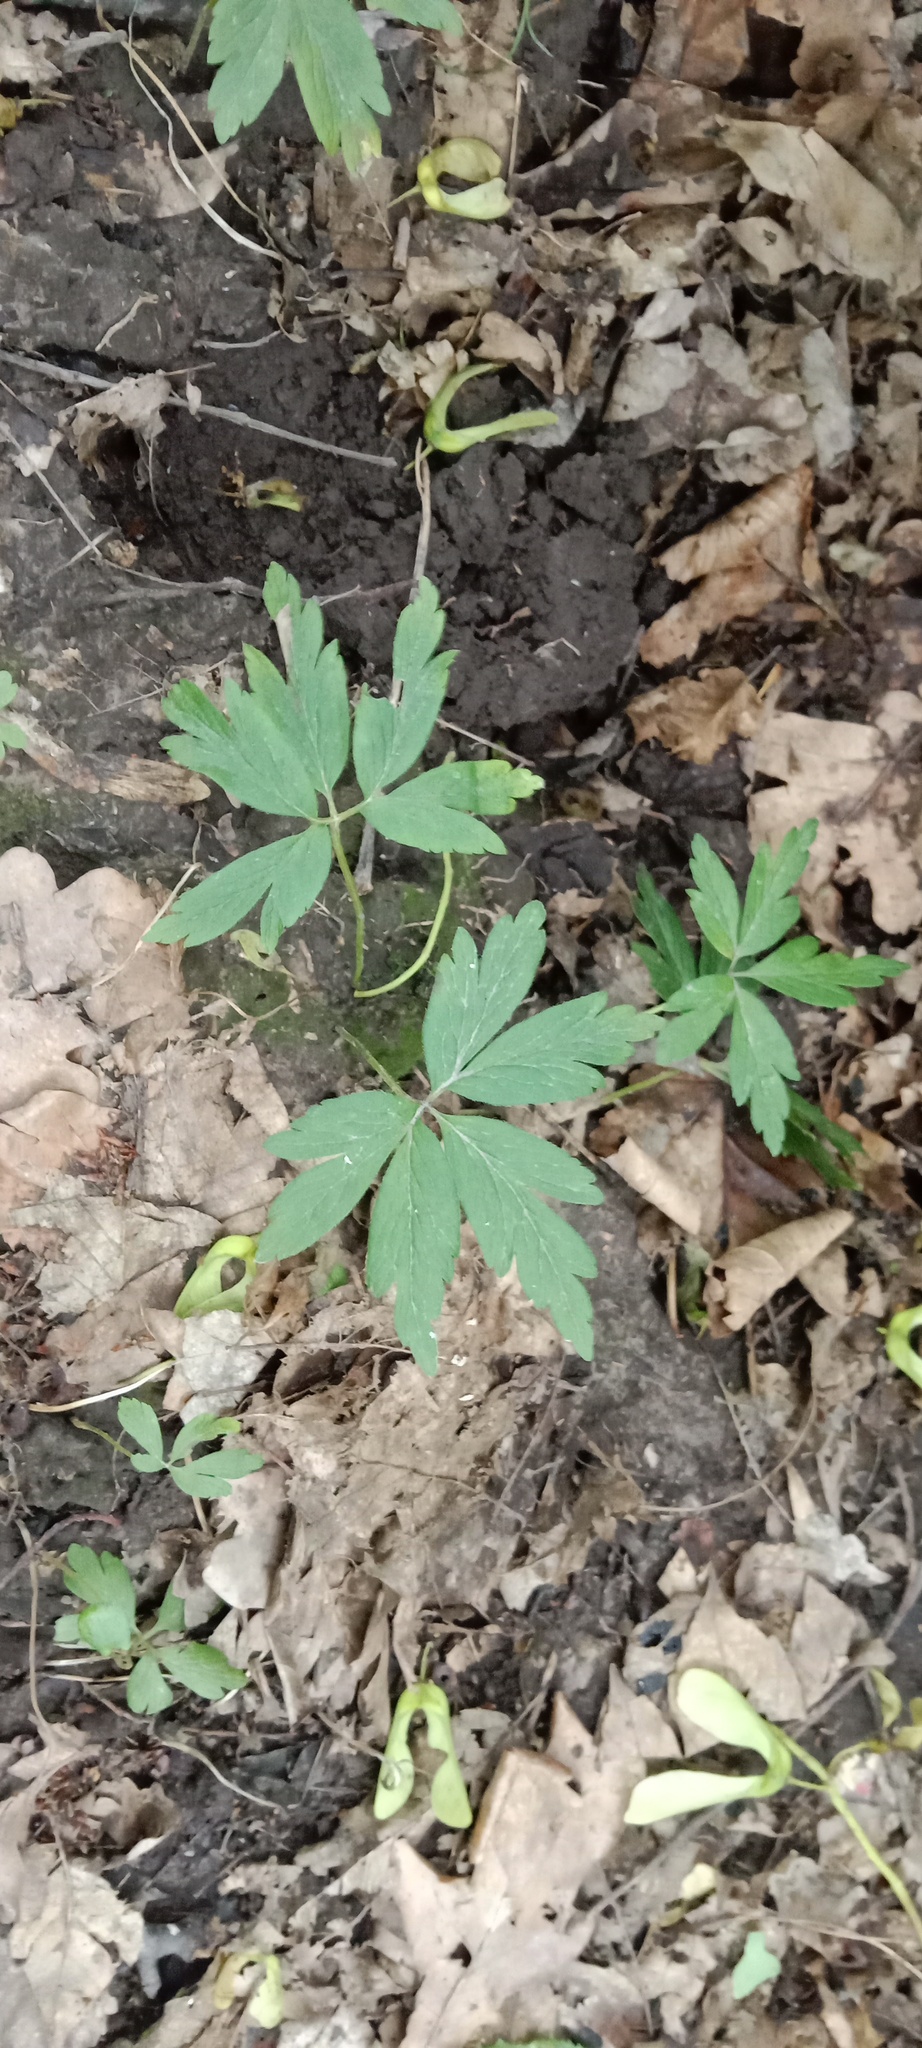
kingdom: Plantae
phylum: Tracheophyta
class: Magnoliopsida
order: Ranunculales
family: Ranunculaceae
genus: Anemone
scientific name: Anemone nemorosa
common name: Wood anemone
